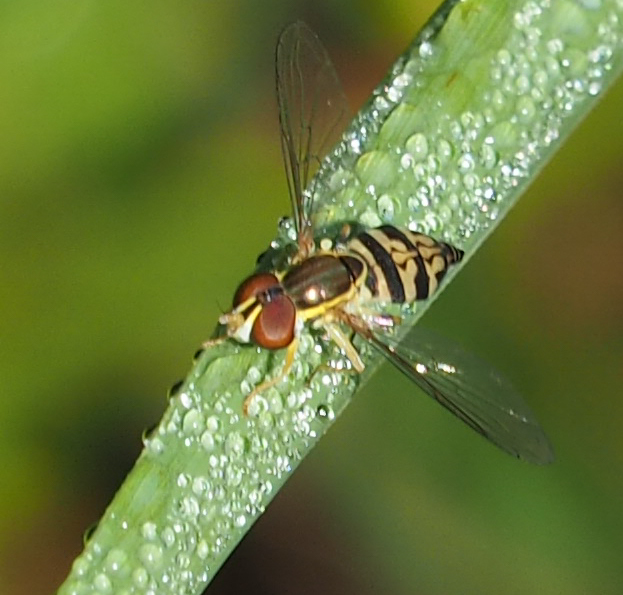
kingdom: Animalia
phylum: Arthropoda
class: Insecta
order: Diptera
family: Syrphidae
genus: Toxomerus
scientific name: Toxomerus geminatus
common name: Eastern calligrapher
